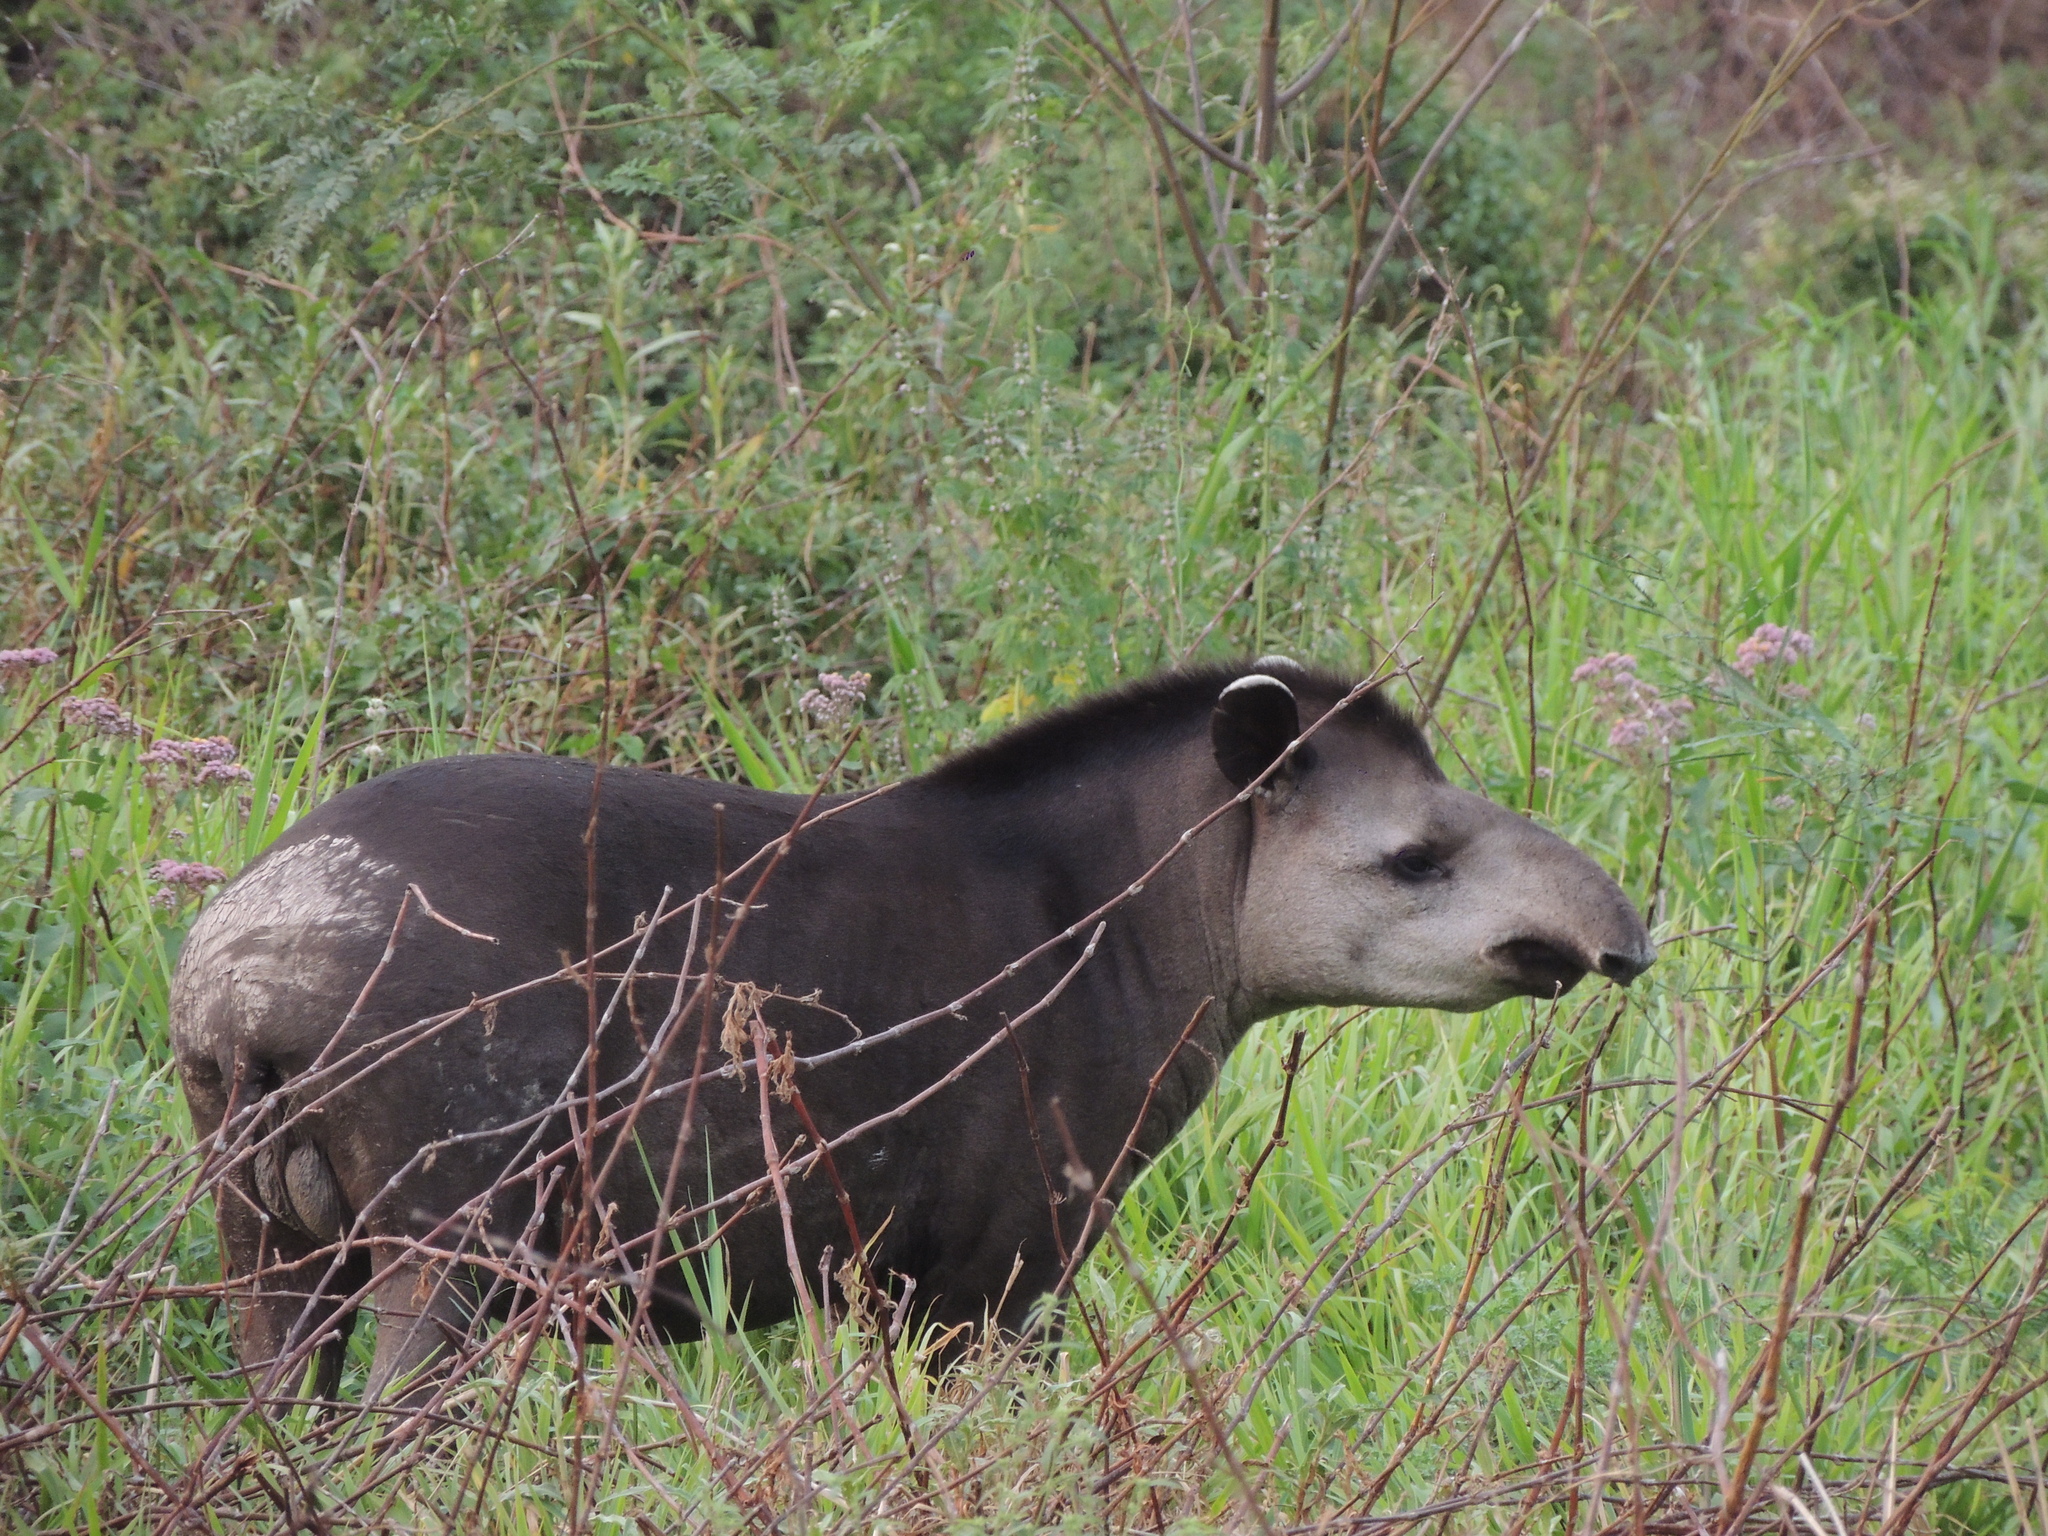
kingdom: Animalia
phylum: Chordata
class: Mammalia
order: Perissodactyla
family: Tapiridae
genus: Tapirus
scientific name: Tapirus terrestris
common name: Brazilian tapir
